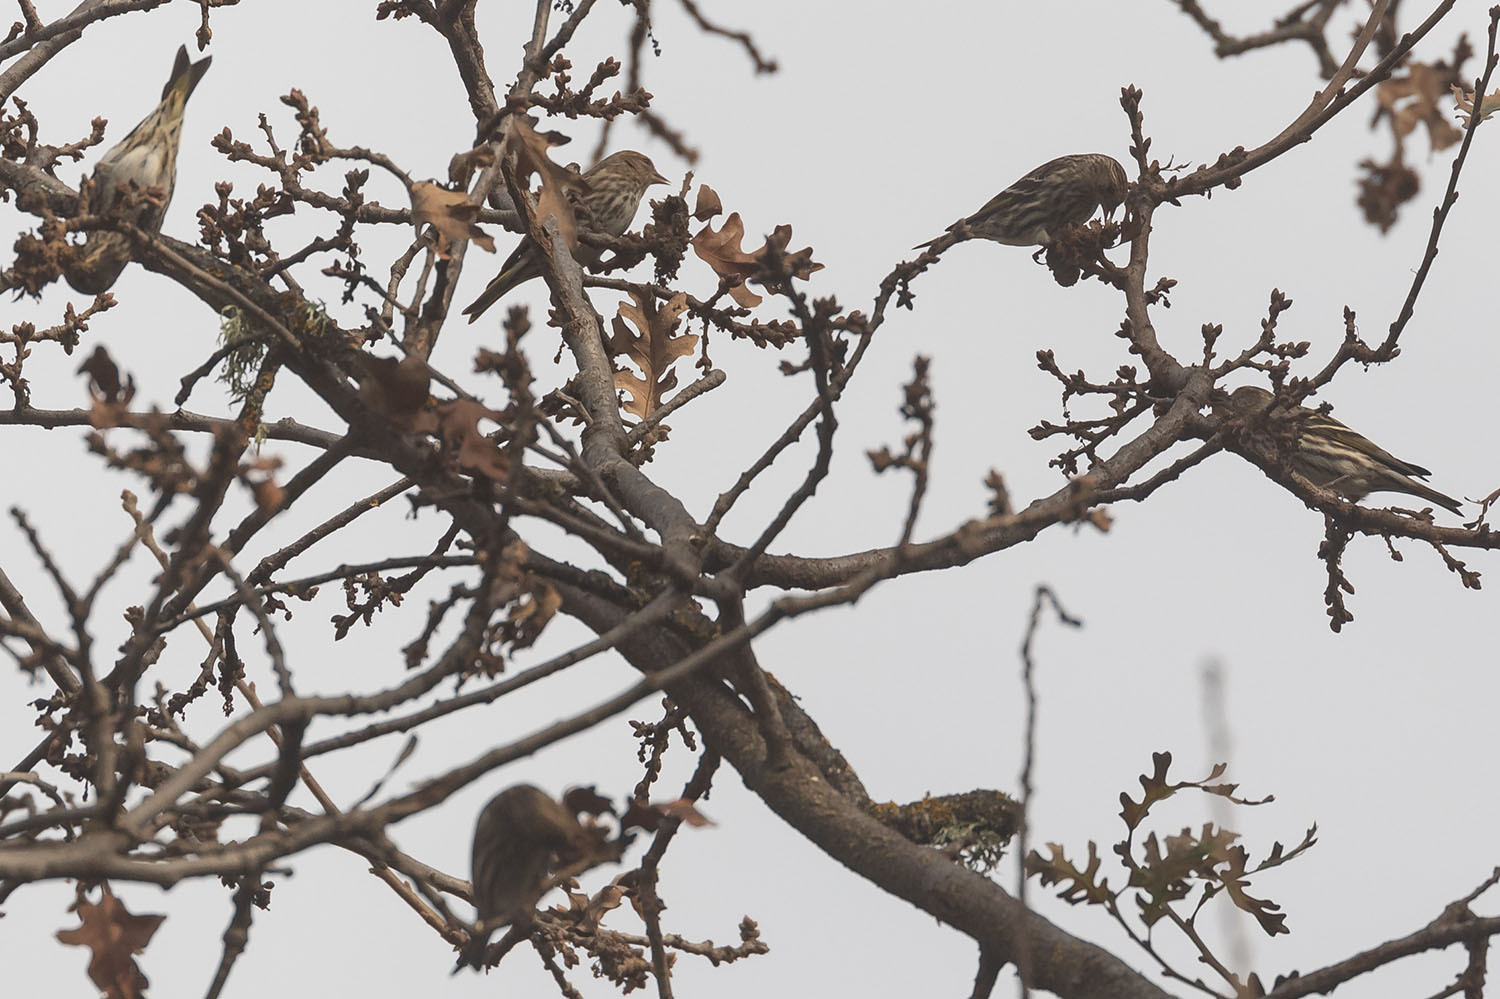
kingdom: Animalia
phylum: Chordata
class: Aves
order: Passeriformes
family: Fringillidae
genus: Spinus
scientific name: Spinus pinus
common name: Pine siskin
